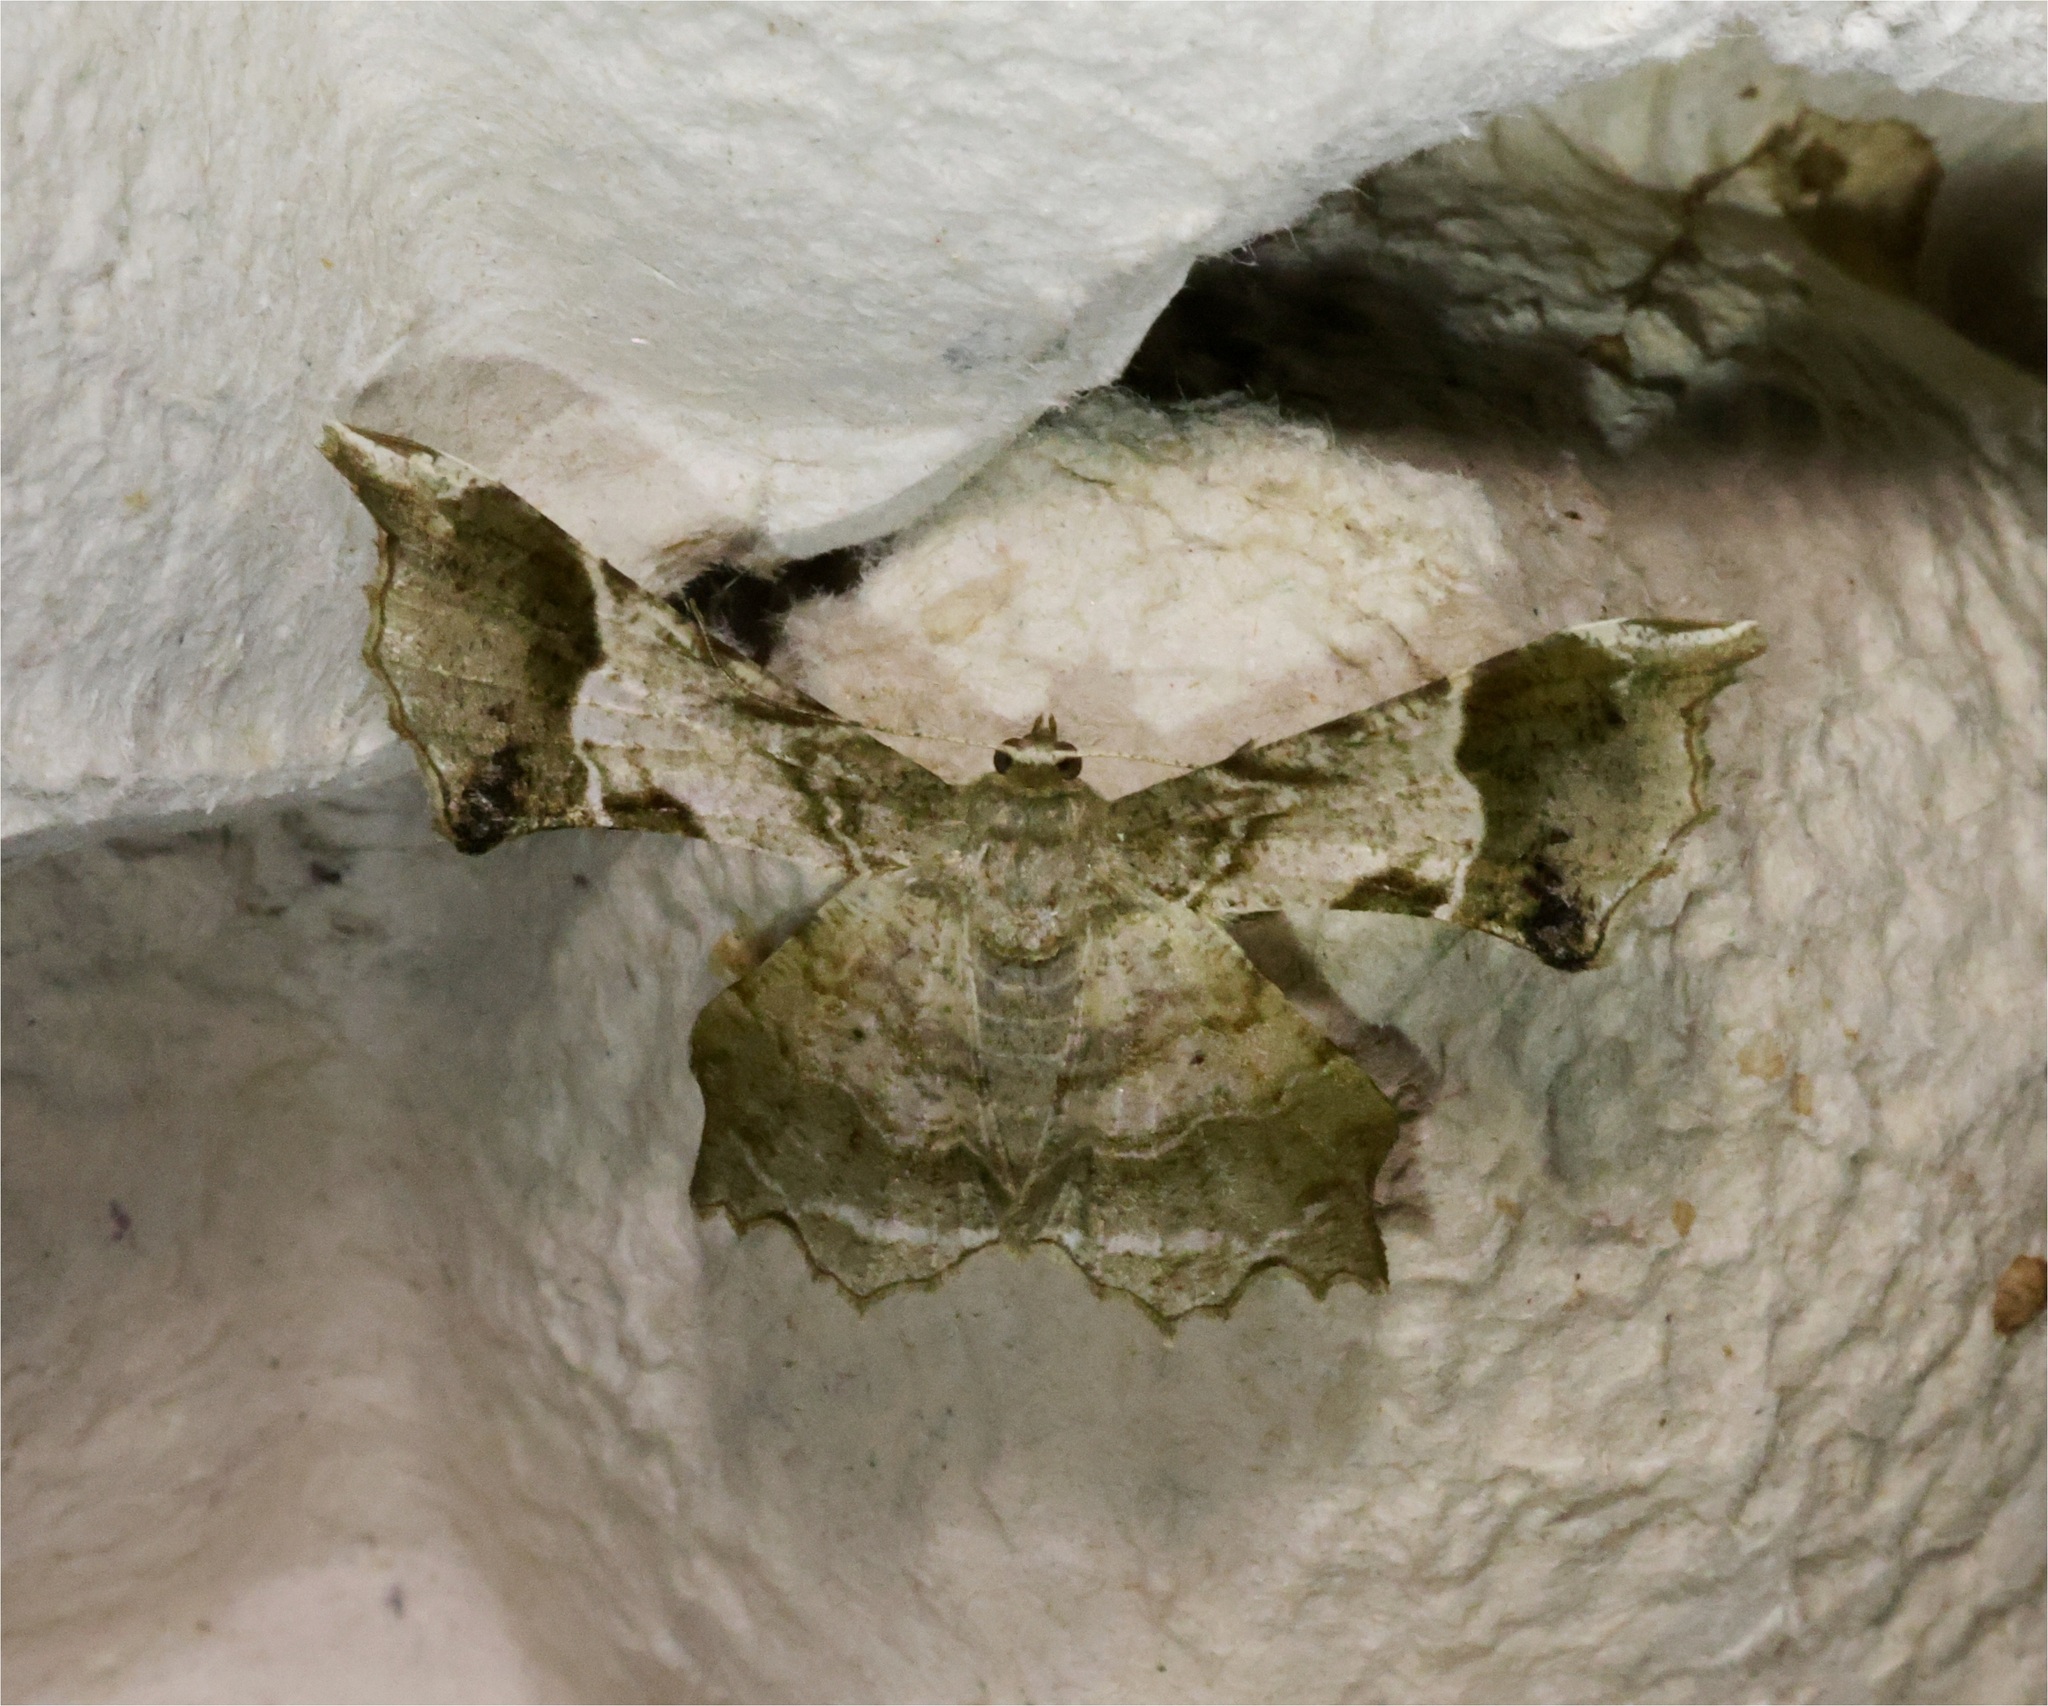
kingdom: Animalia
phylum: Arthropoda
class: Insecta
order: Lepidoptera
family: Geometridae
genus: Krananda
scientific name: Krananda oliveomarginata
